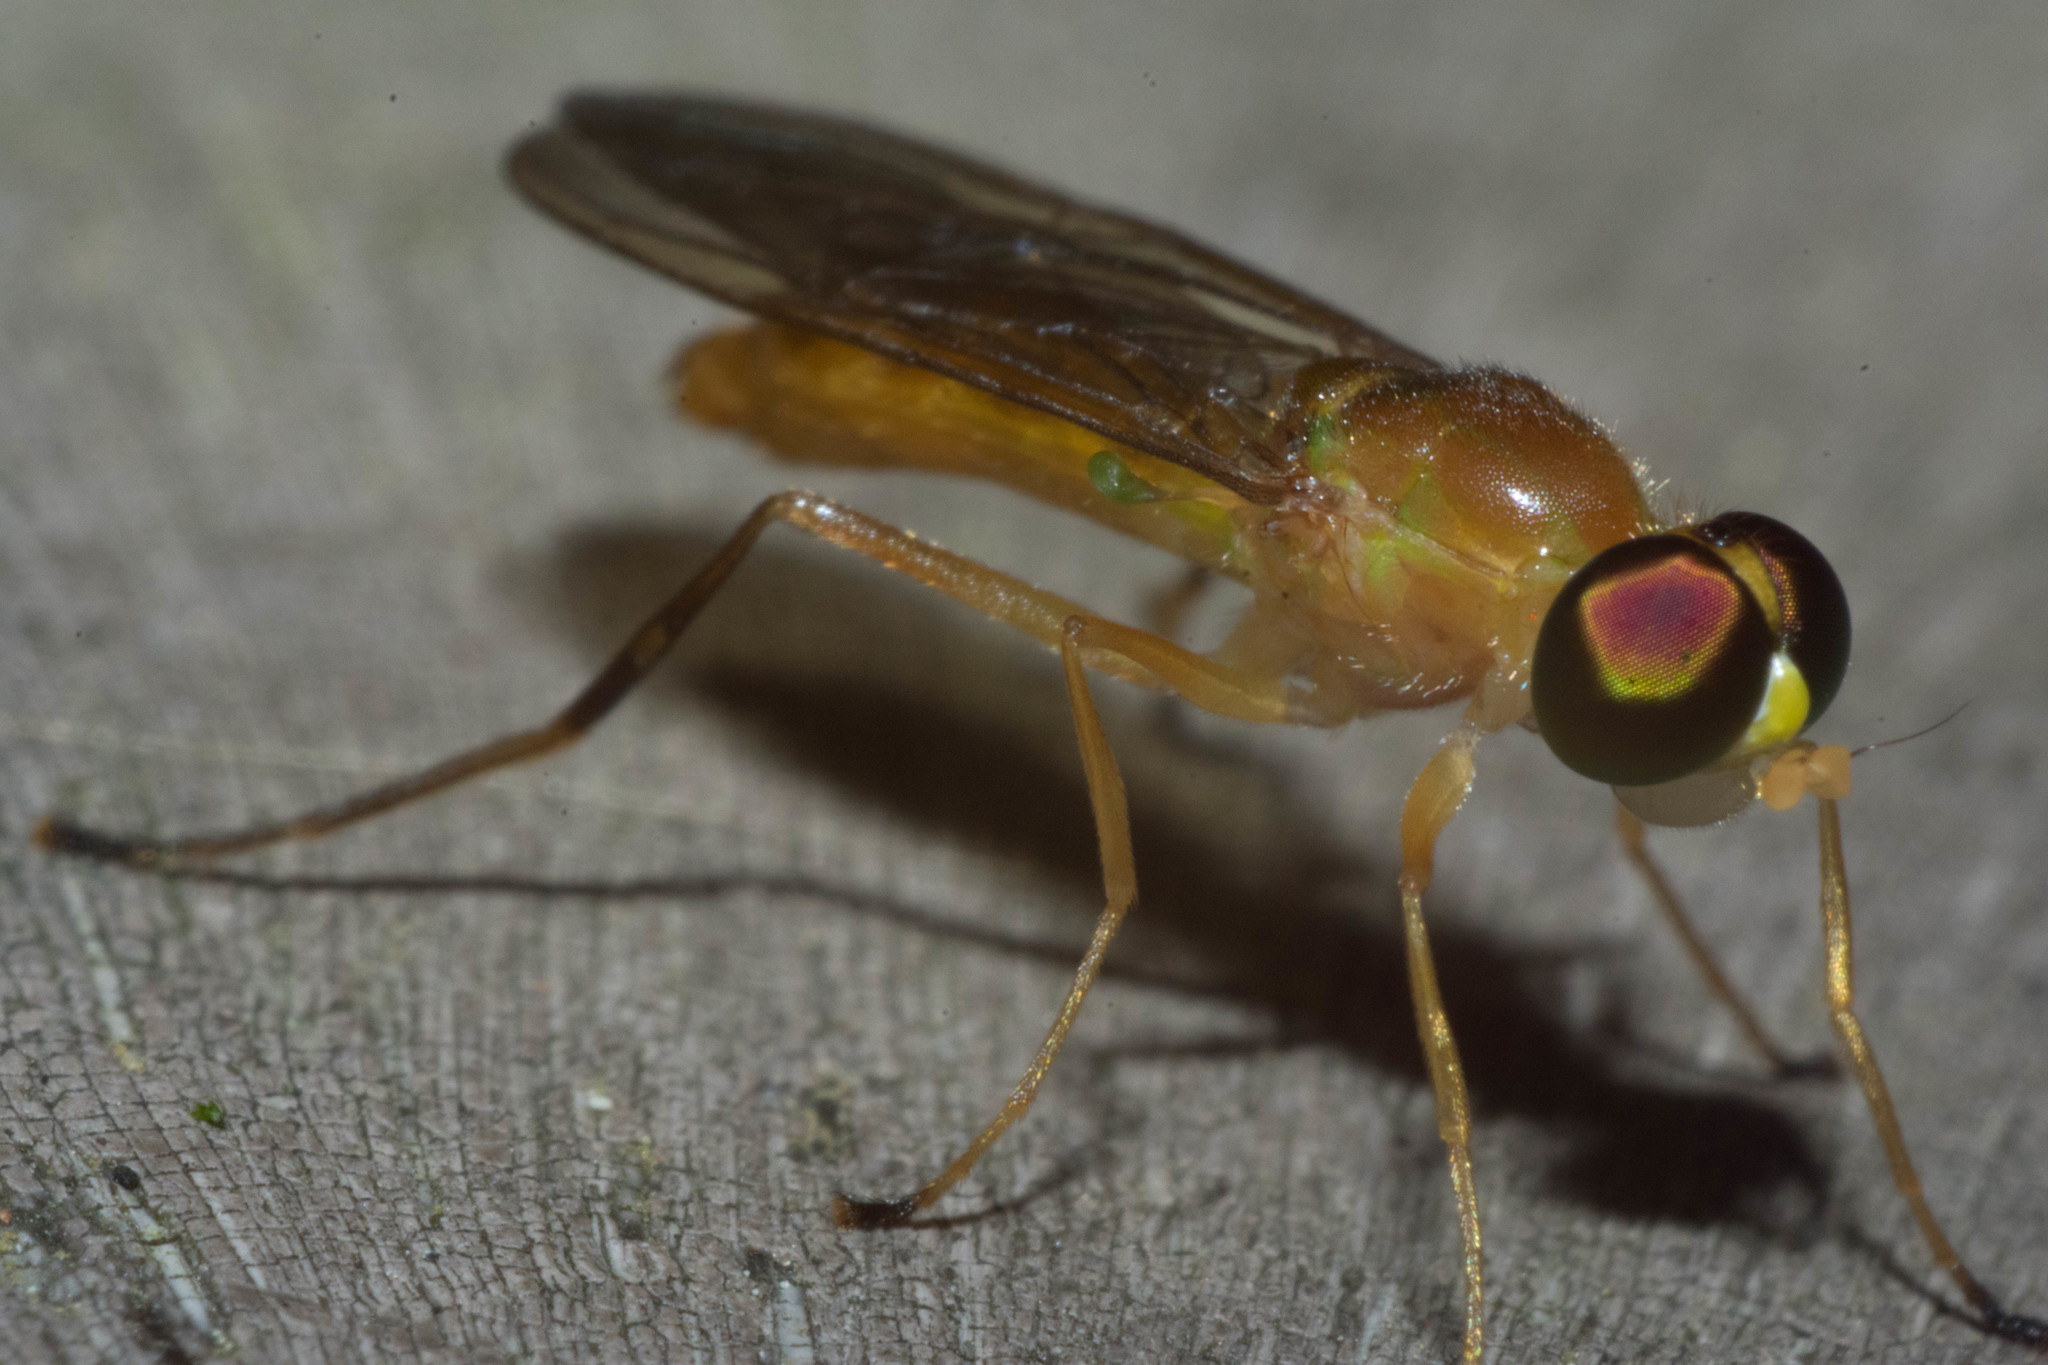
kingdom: Animalia
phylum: Arthropoda
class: Insecta
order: Diptera
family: Stratiomyidae
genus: Ptecticus
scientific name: Ptecticus trivittatus
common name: Compost fly
